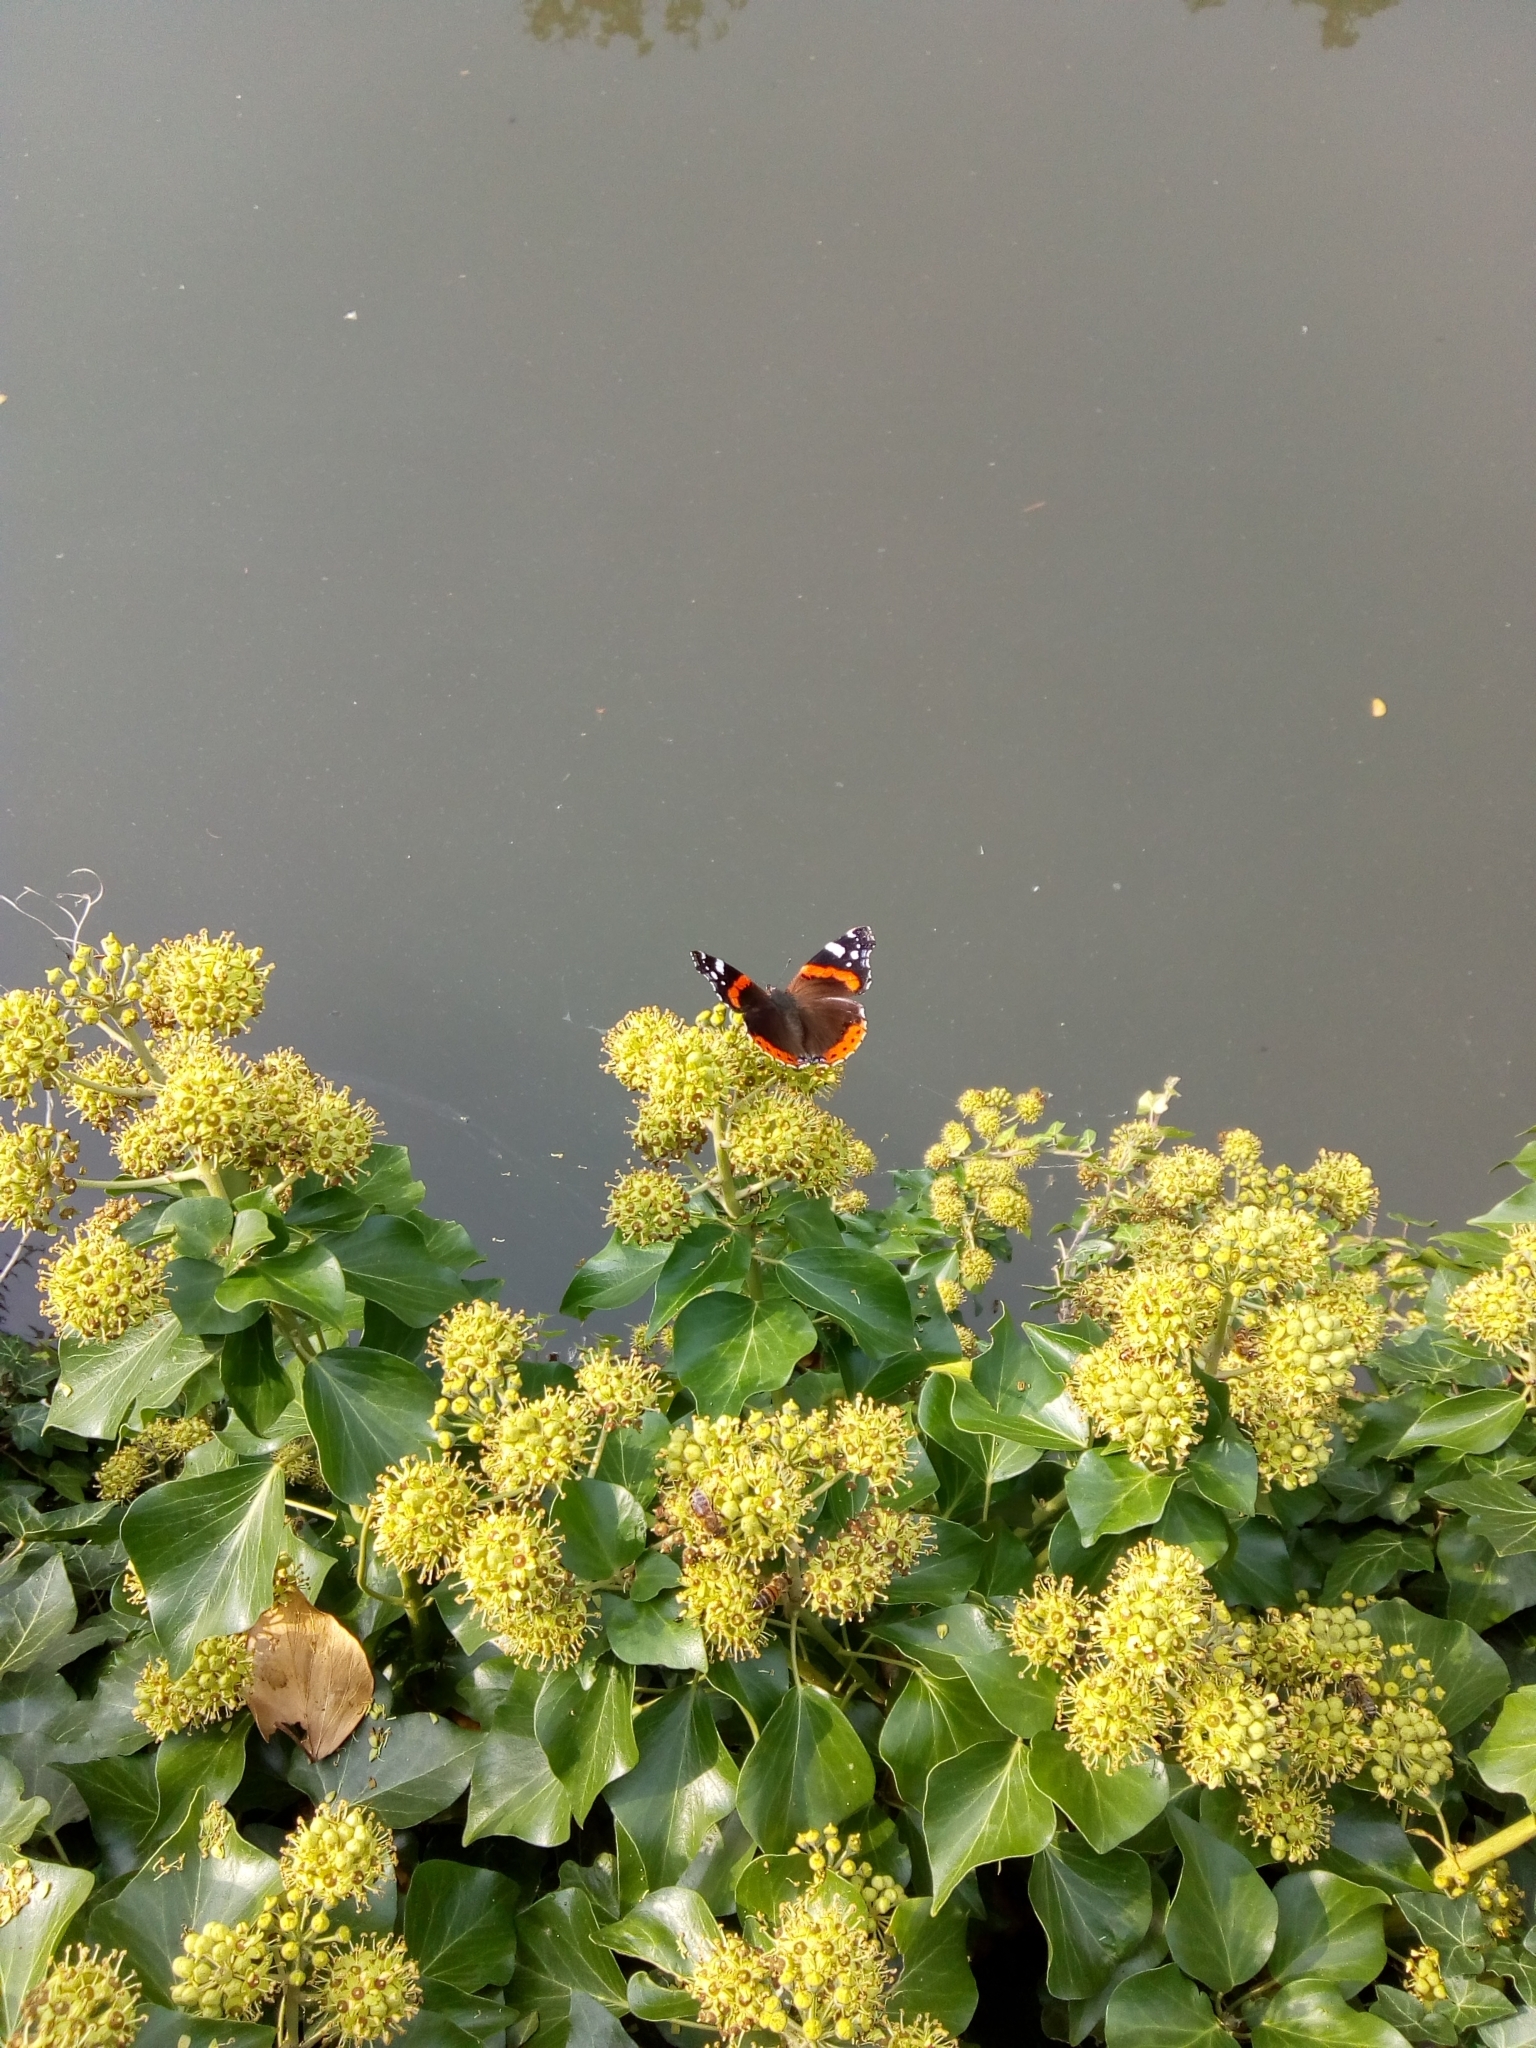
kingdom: Animalia
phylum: Arthropoda
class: Insecta
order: Lepidoptera
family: Nymphalidae
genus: Vanessa
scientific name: Vanessa atalanta
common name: Red admiral
